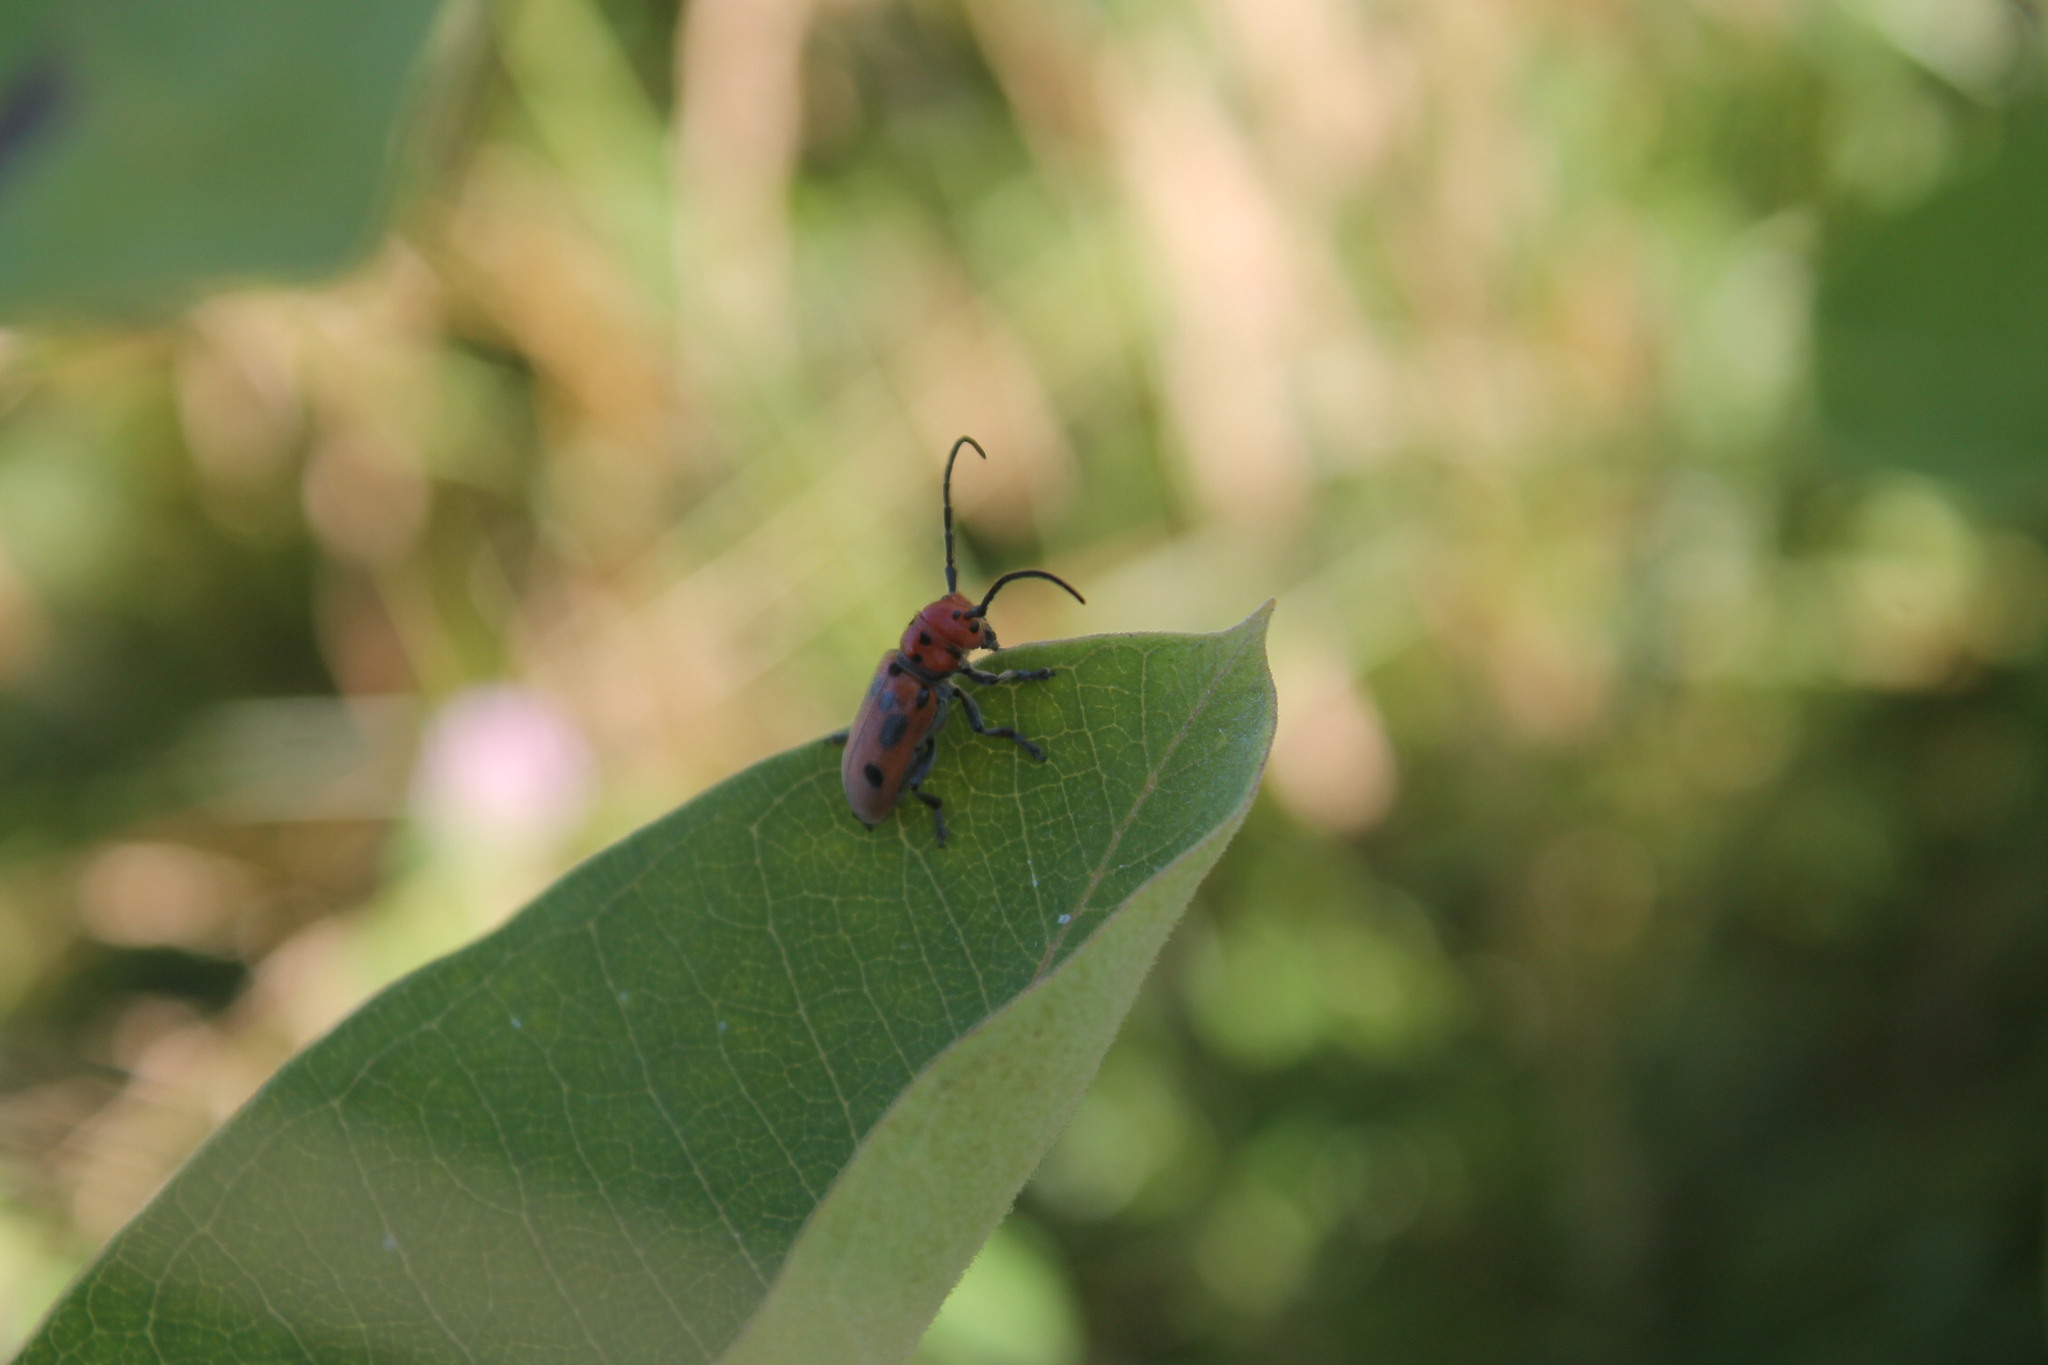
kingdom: Animalia
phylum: Arthropoda
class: Insecta
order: Coleoptera
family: Cerambycidae
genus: Tetraopes
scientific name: Tetraopes tetrophthalmus
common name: Red milkweed beetle
